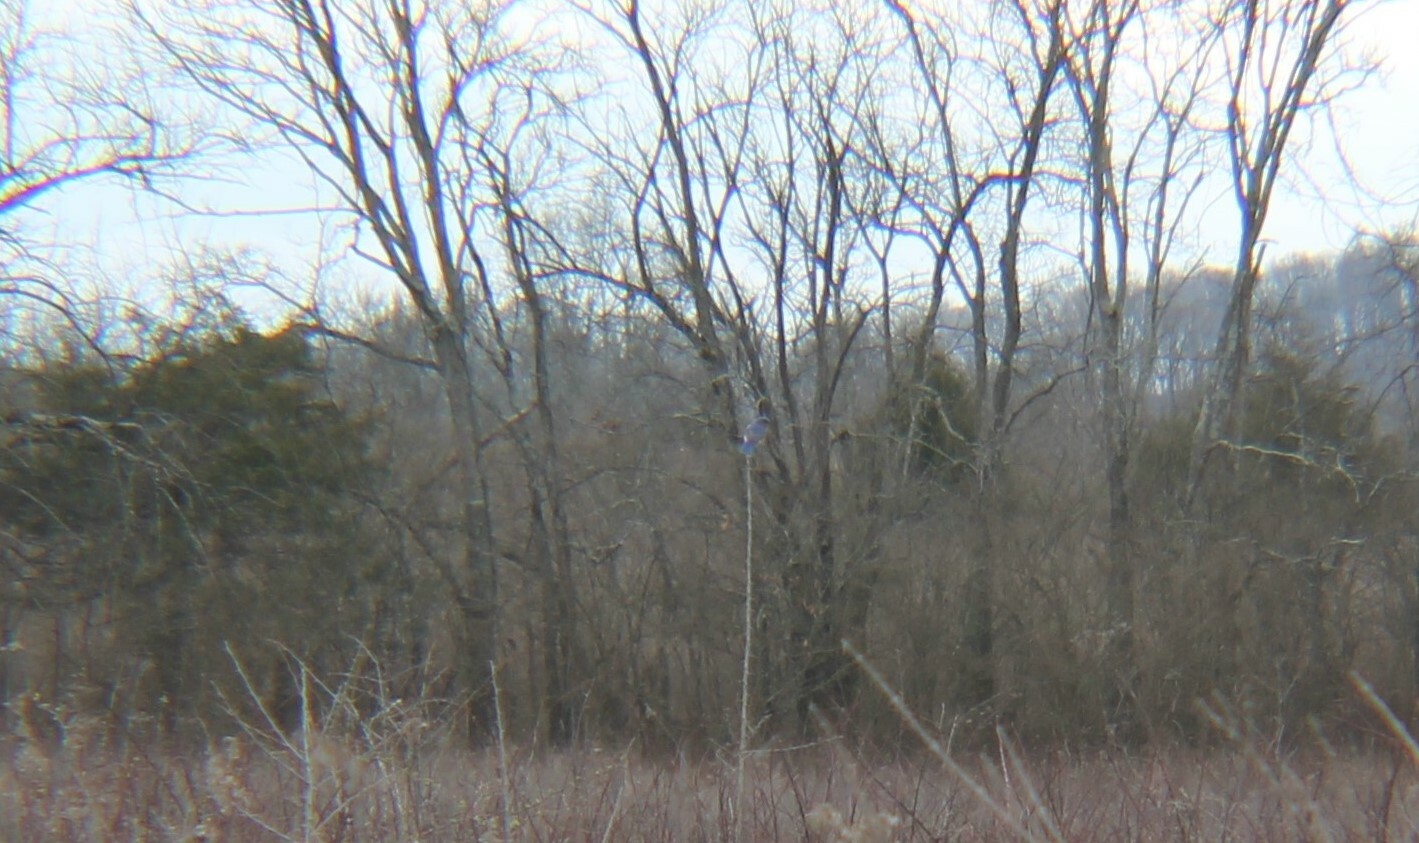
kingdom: Animalia
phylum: Chordata
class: Aves
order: Passeriformes
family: Turdidae
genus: Sialia
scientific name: Sialia sialis
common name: Eastern bluebird
